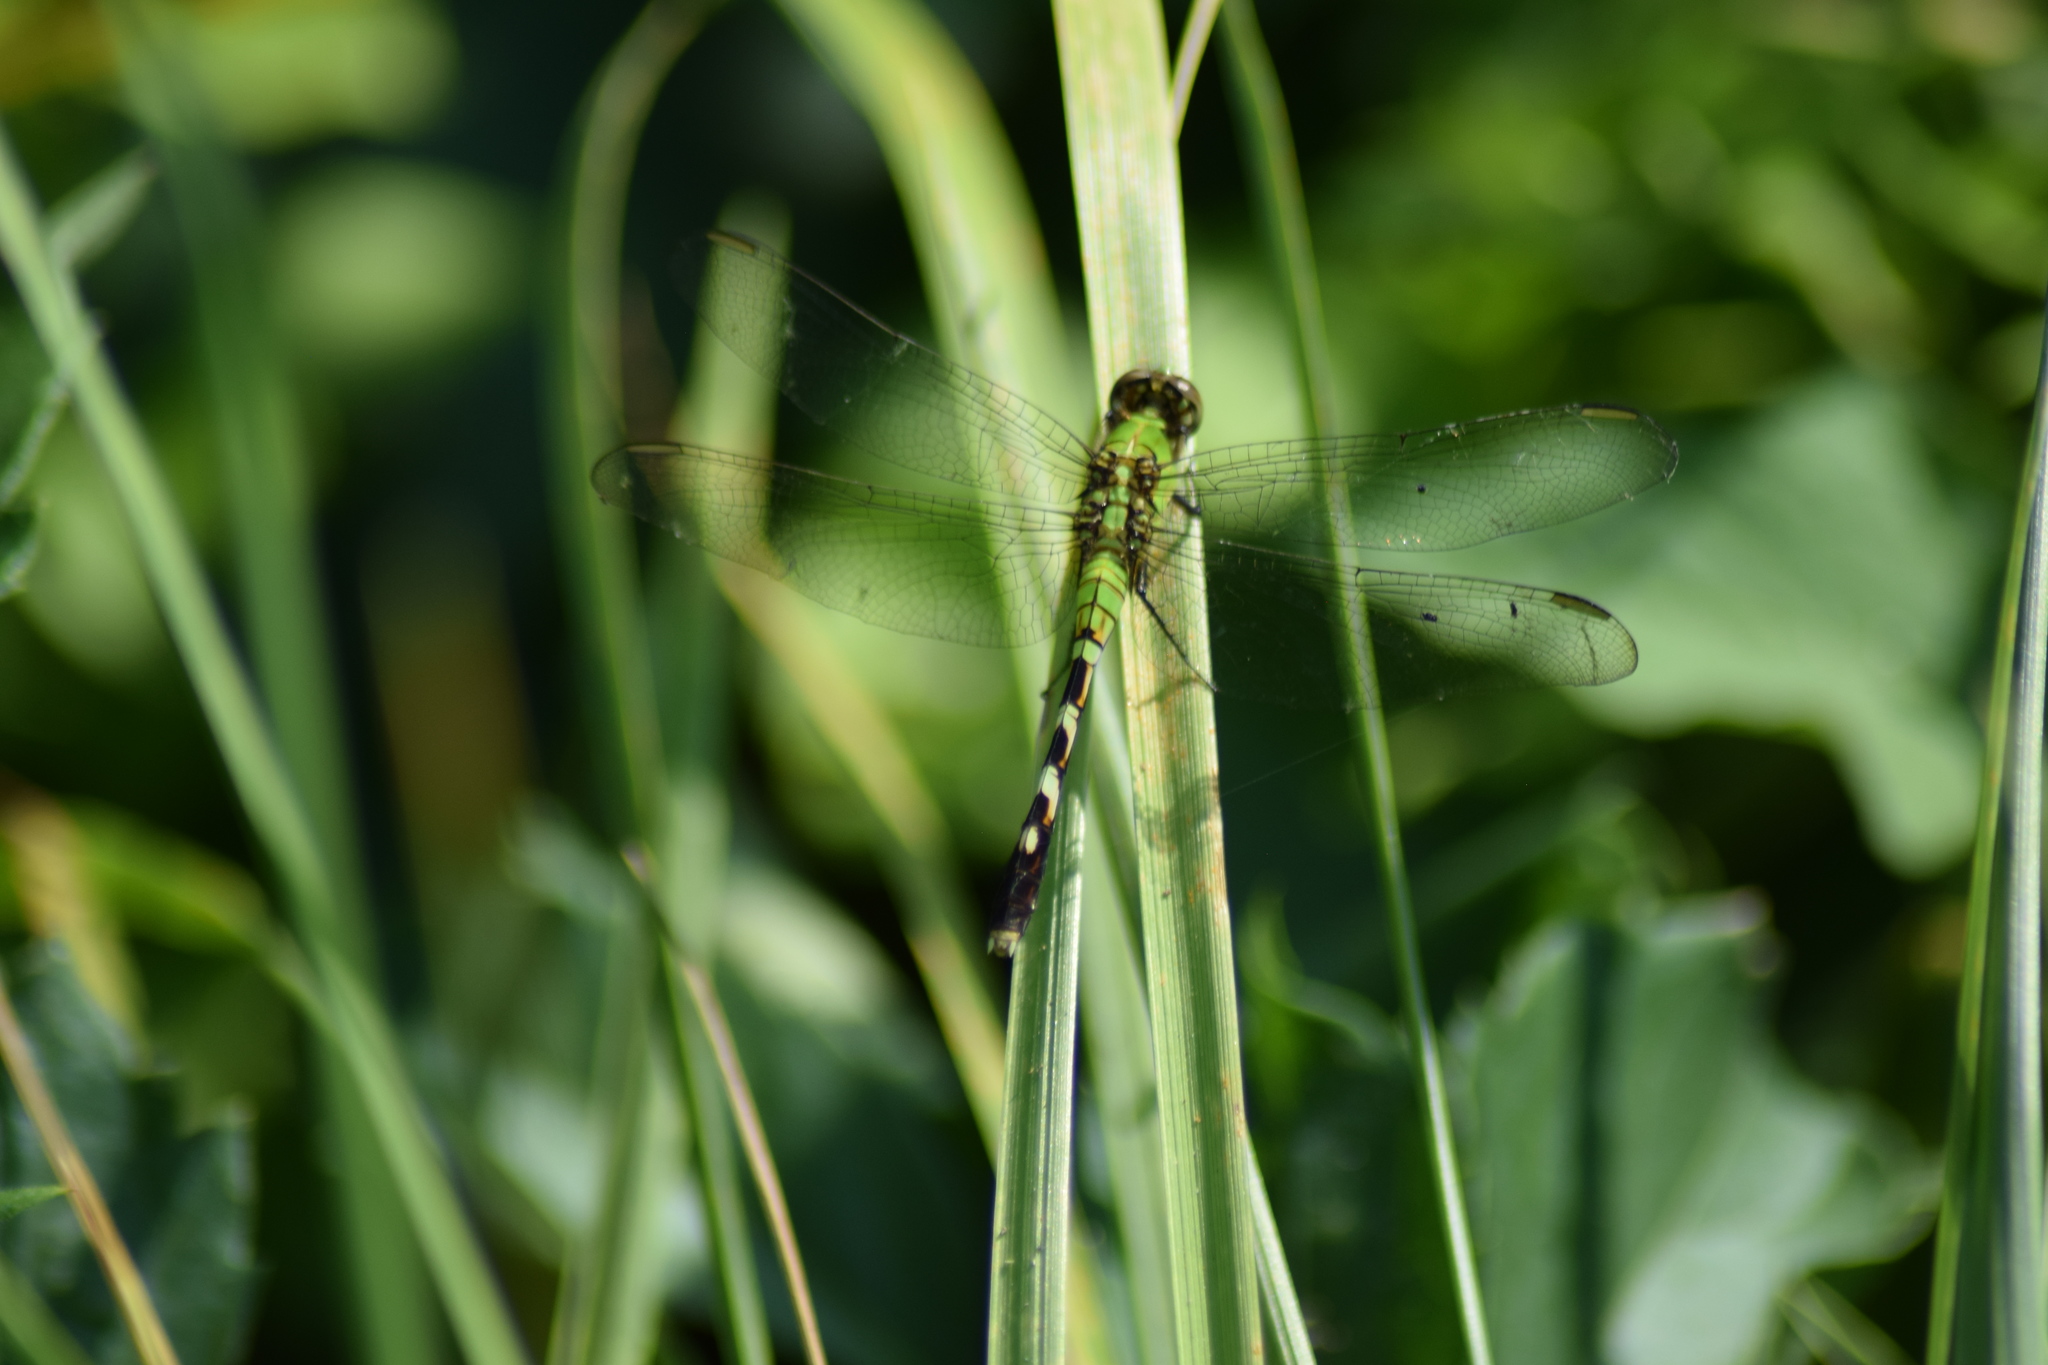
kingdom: Animalia
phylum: Arthropoda
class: Insecta
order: Odonata
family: Libellulidae
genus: Erythemis
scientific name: Erythemis simplicicollis
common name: Eastern pondhawk
